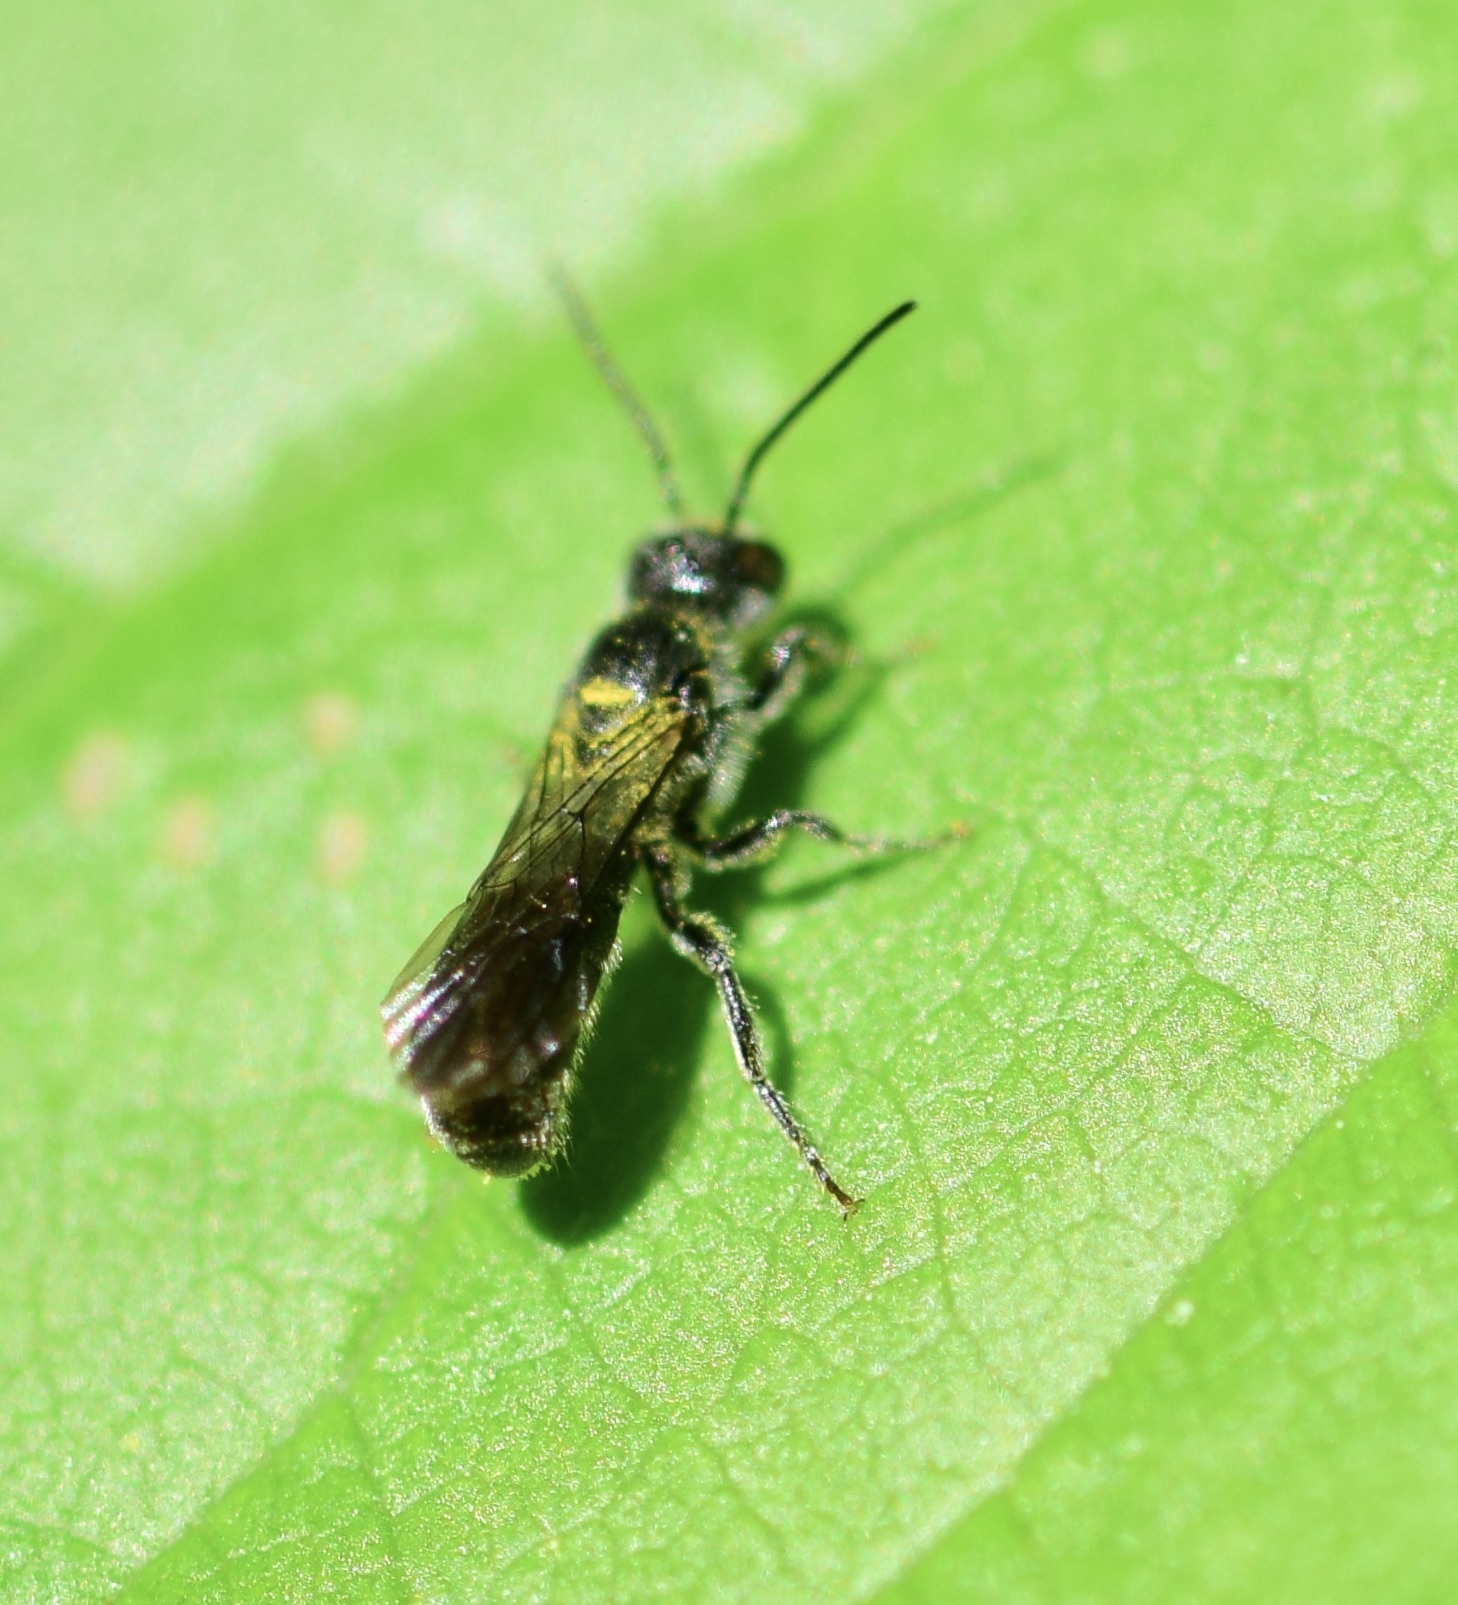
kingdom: Animalia
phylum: Arthropoda
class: Insecta
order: Hymenoptera
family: Megachilidae
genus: Chelostoma
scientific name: Chelostoma philadelphi
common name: Mock-orange scissor bee
